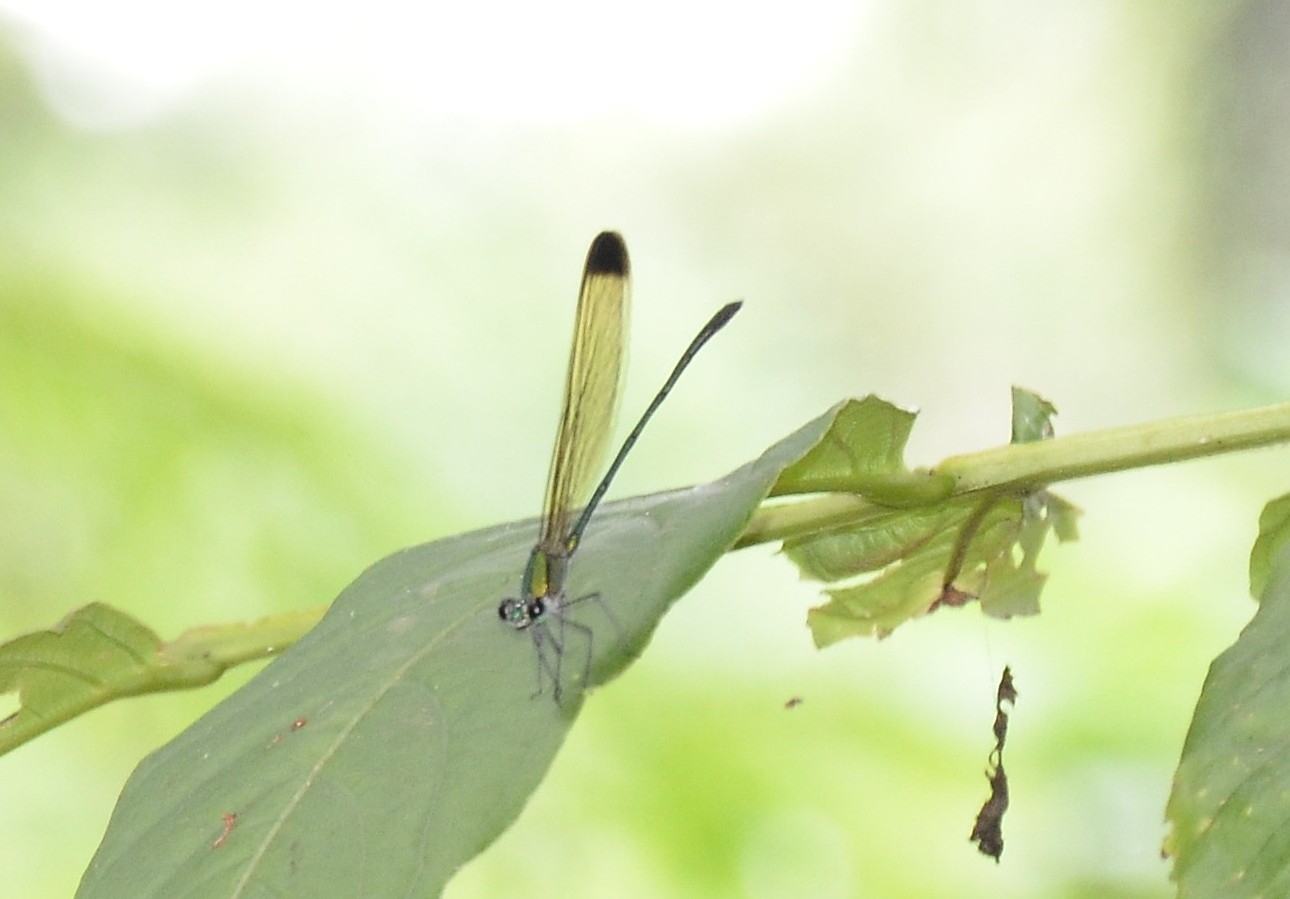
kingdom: Animalia
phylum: Arthropoda
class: Insecta
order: Odonata
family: Calopterygidae
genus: Vestalis
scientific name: Vestalis apicalis
